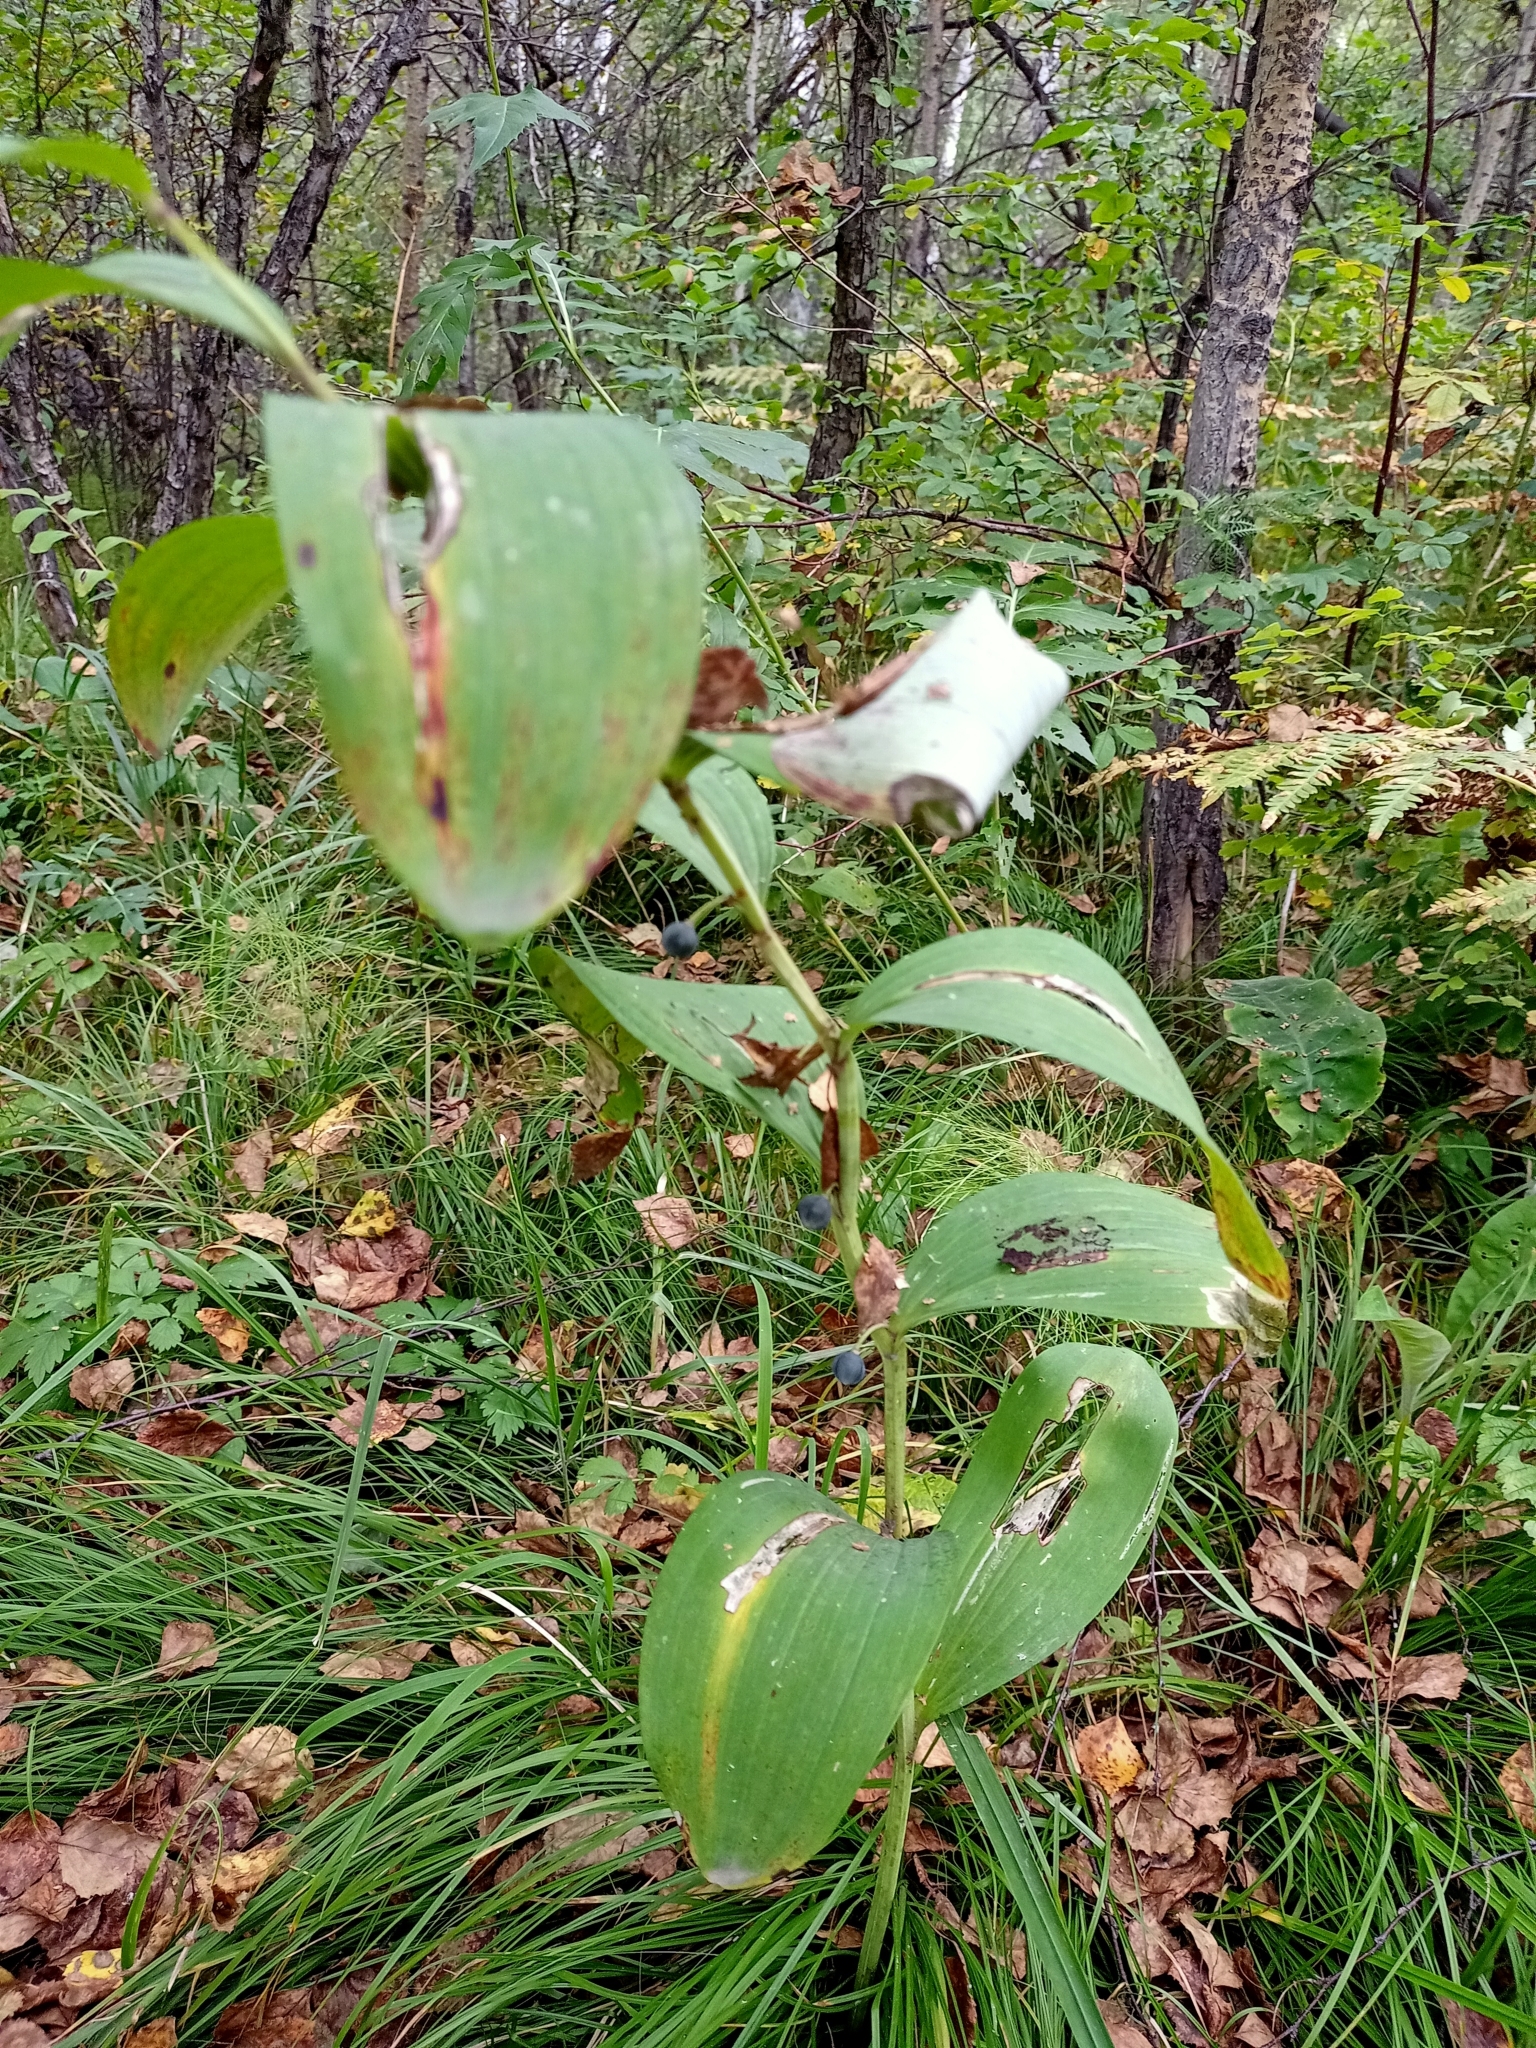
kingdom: Plantae
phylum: Tracheophyta
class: Liliopsida
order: Asparagales
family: Asparagaceae
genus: Polygonatum
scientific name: Polygonatum odoratum
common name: Angular solomon's-seal
